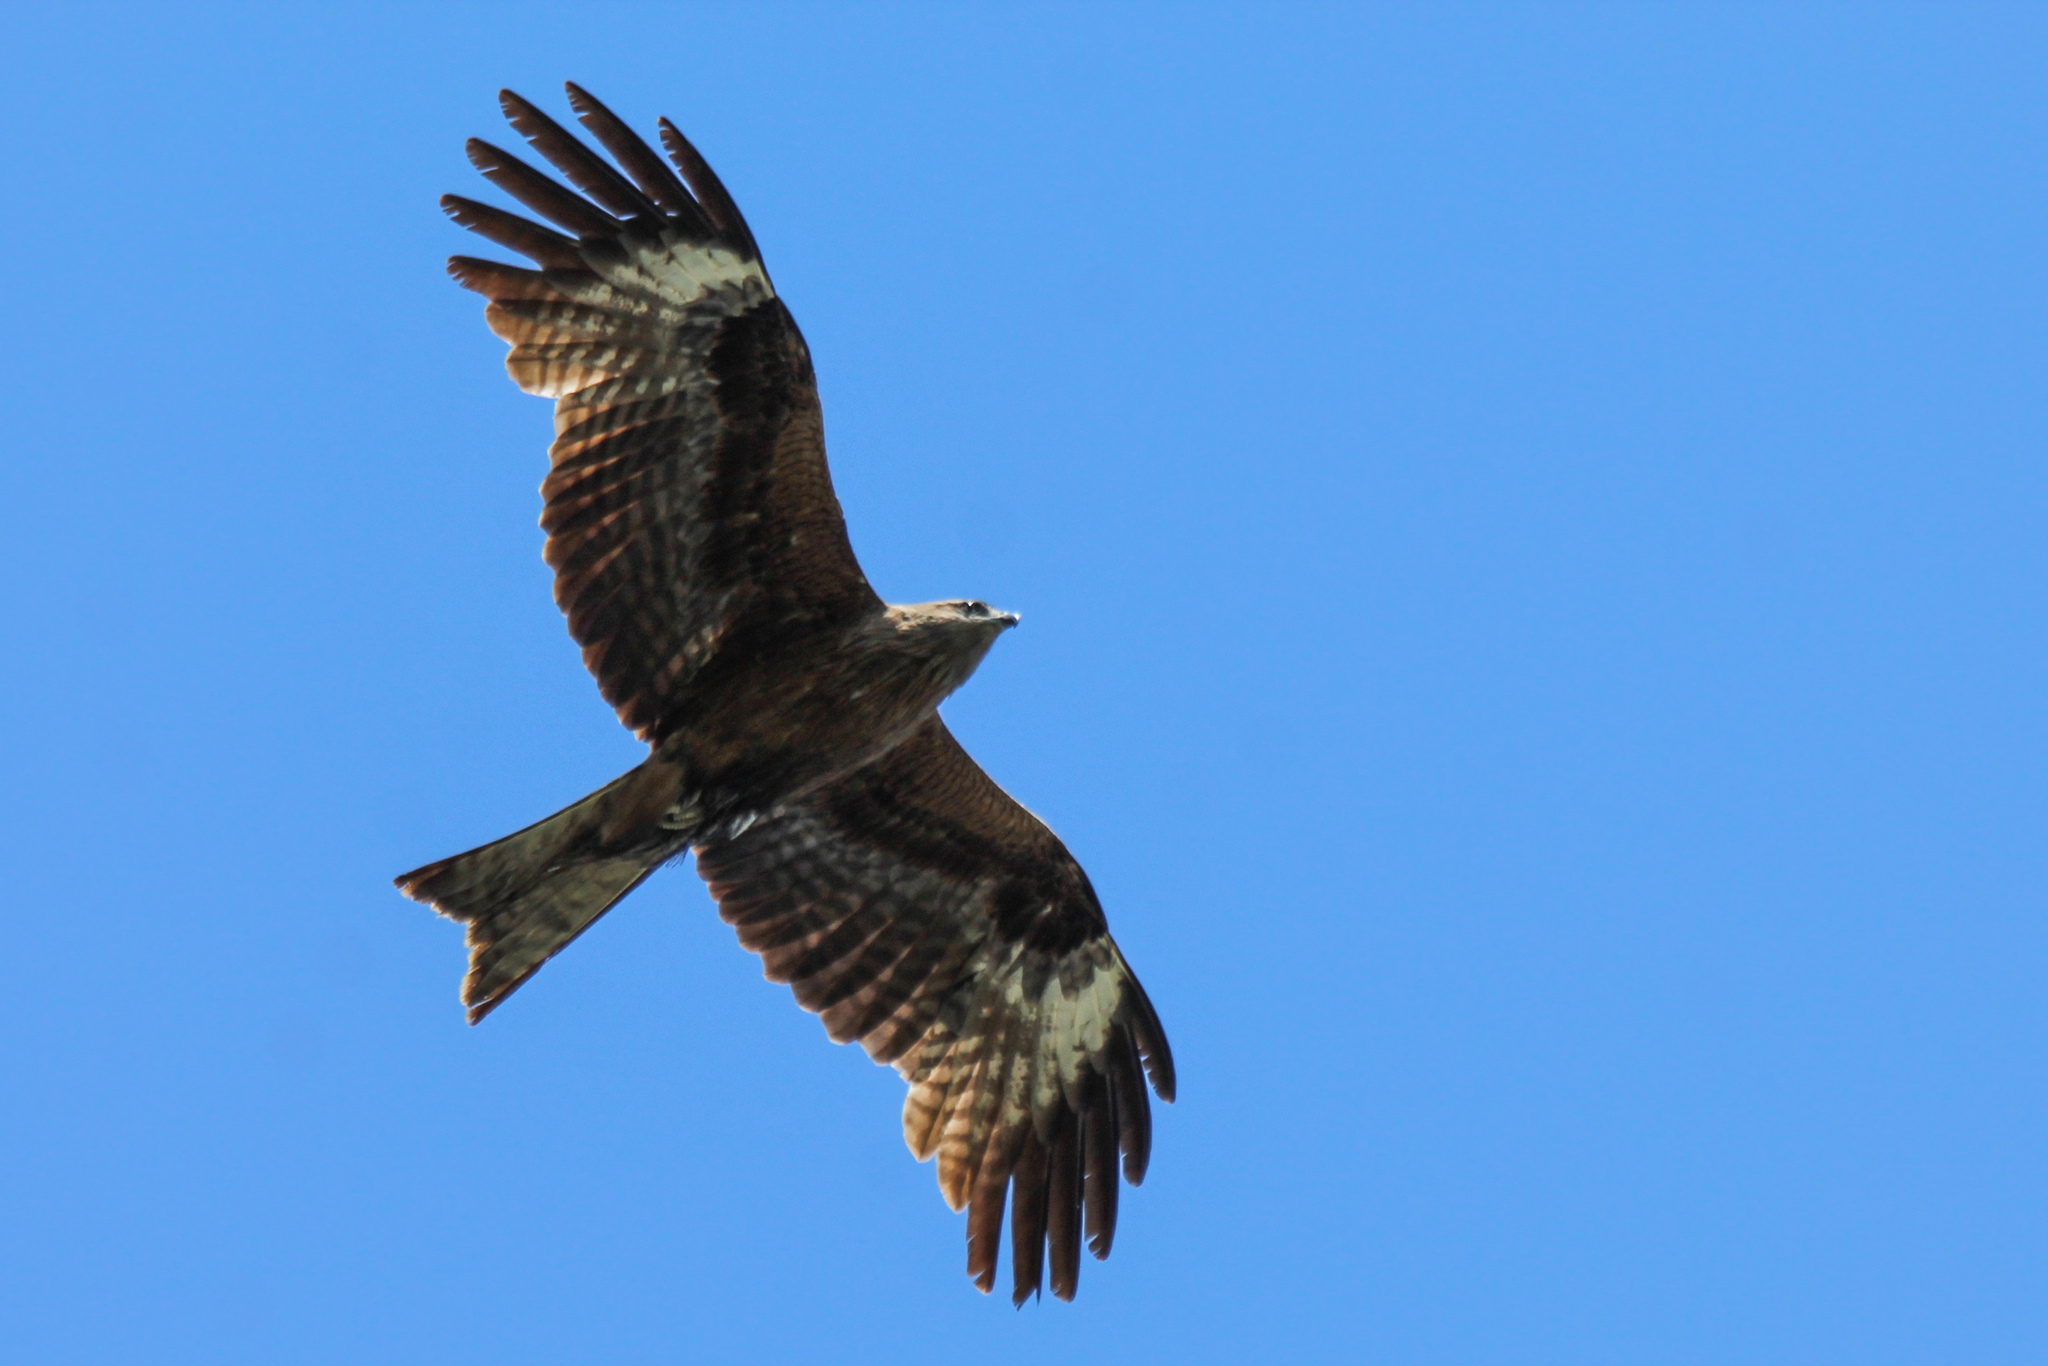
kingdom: Animalia
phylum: Chordata
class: Aves
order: Accipitriformes
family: Accipitridae
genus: Milvus
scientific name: Milvus migrans
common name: Black kite
